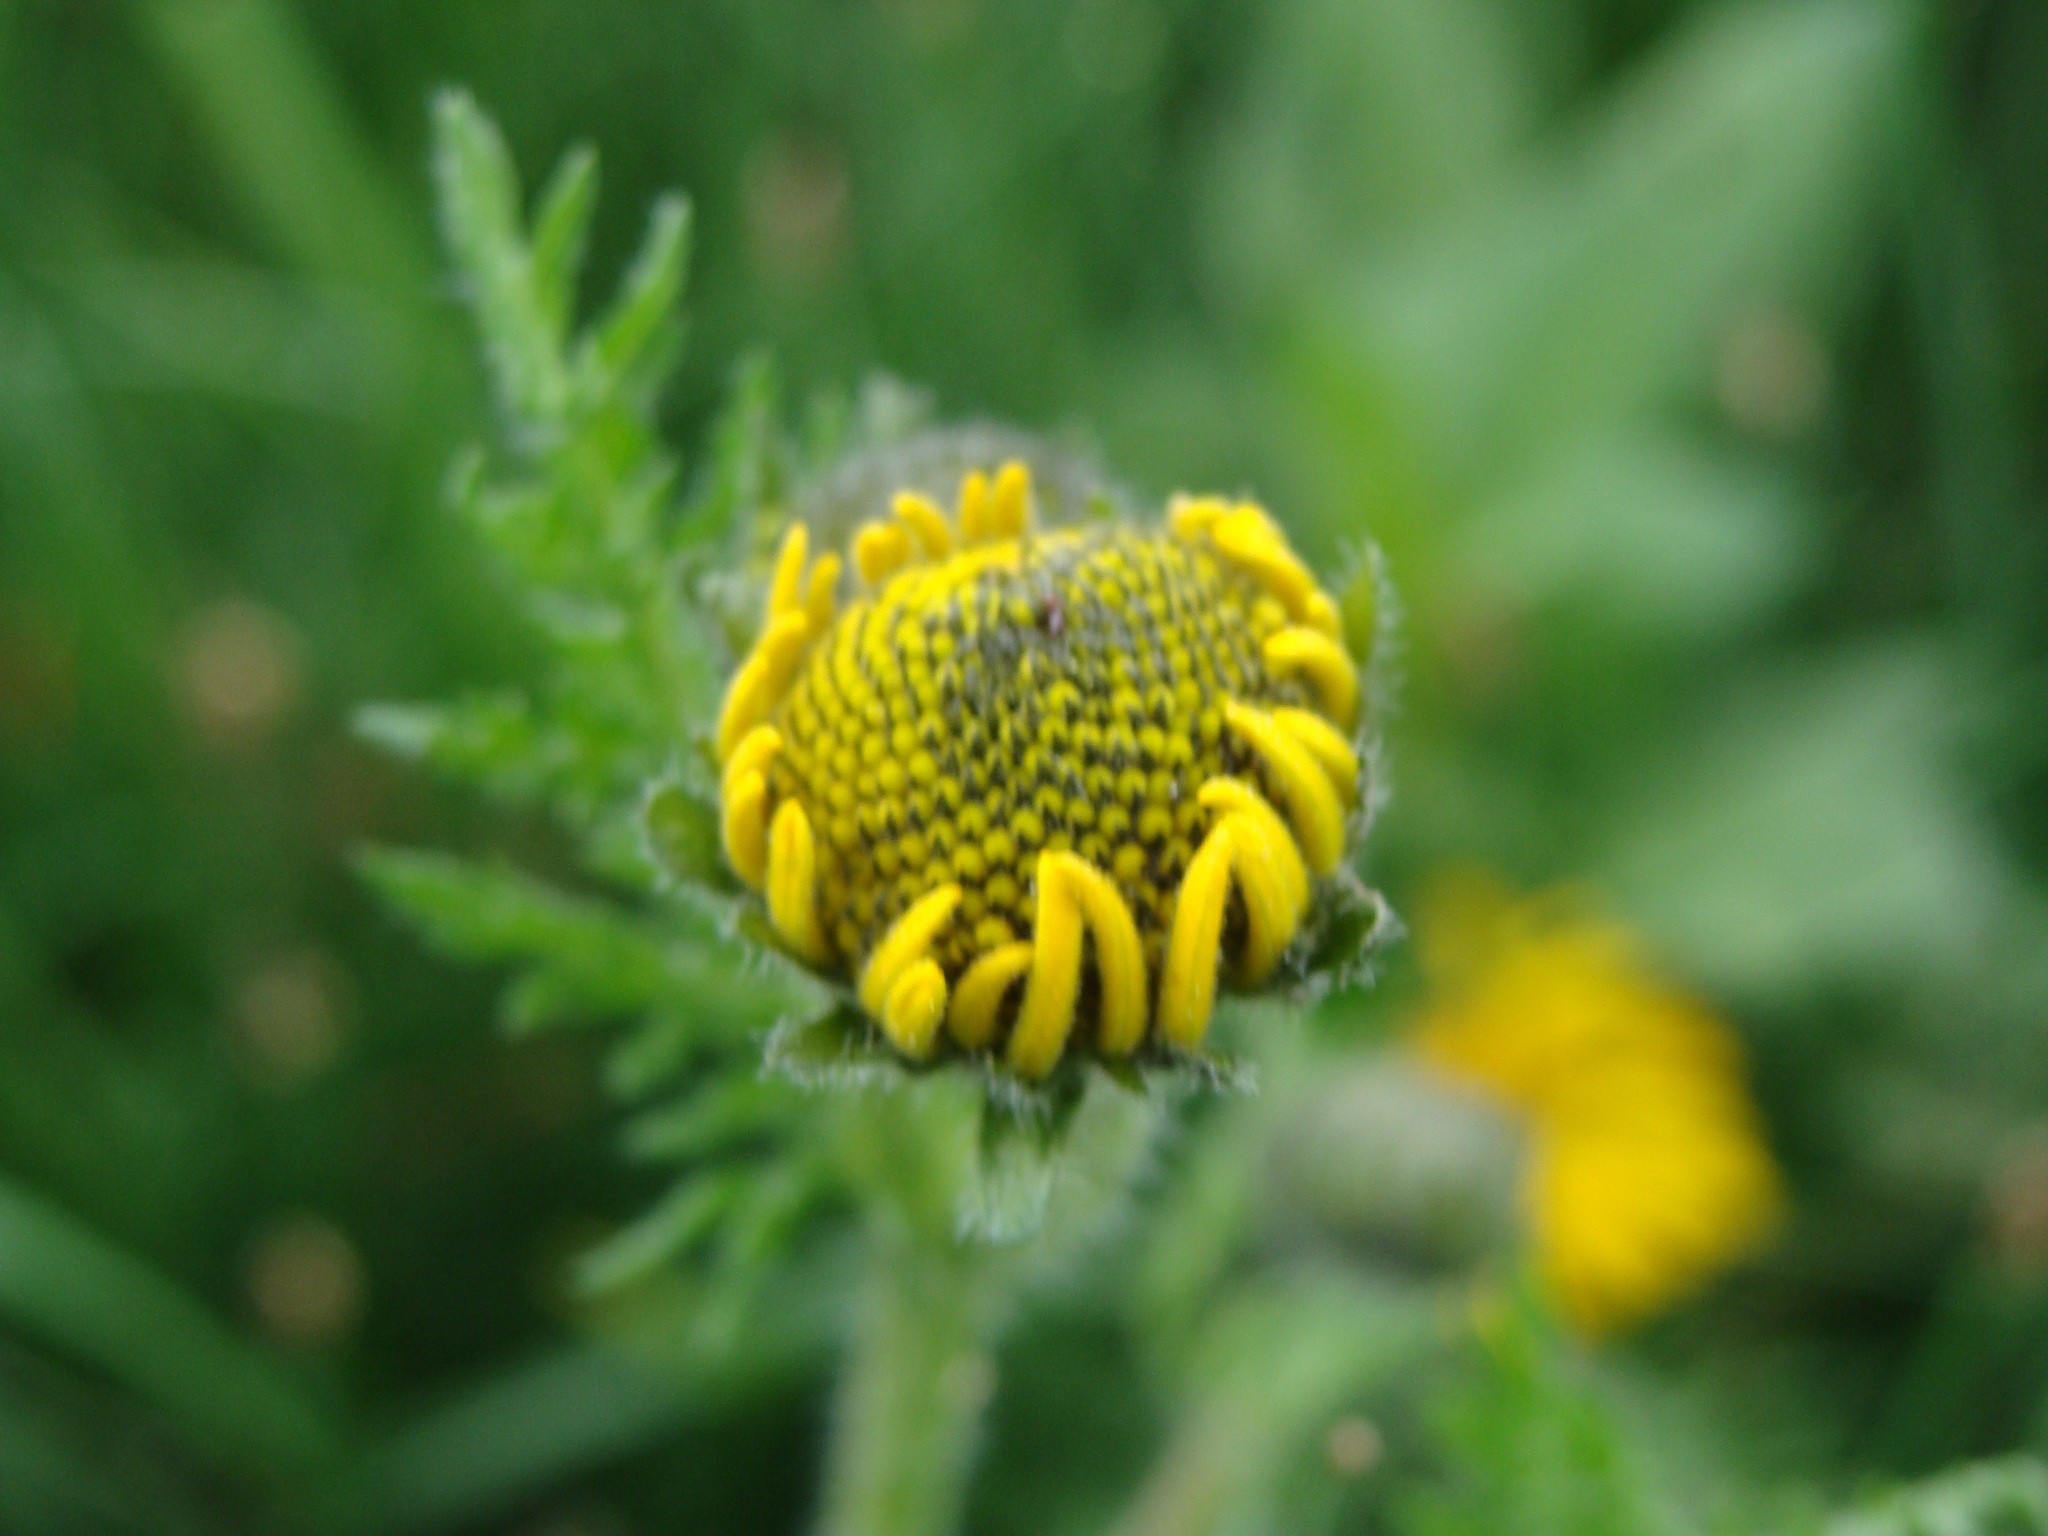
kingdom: Plantae
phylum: Tracheophyta
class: Magnoliopsida
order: Asterales
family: Asteraceae
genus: Hybridella
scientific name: Hybridella globosa
